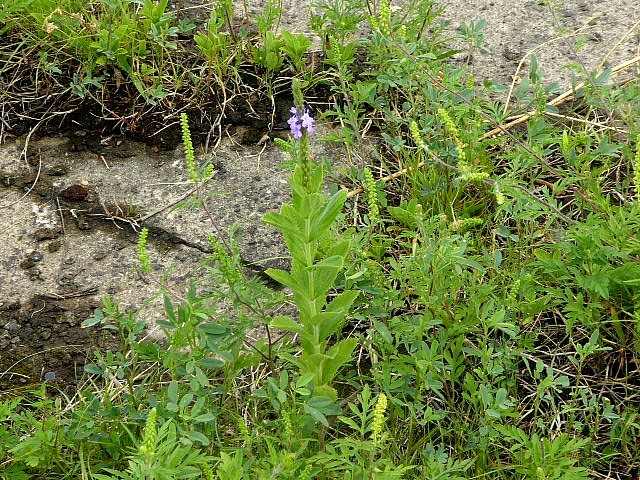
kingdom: Plantae
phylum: Tracheophyta
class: Magnoliopsida
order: Lamiales
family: Verbenaceae
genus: Verbena
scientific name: Verbena stricta
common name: Hoary vervain
